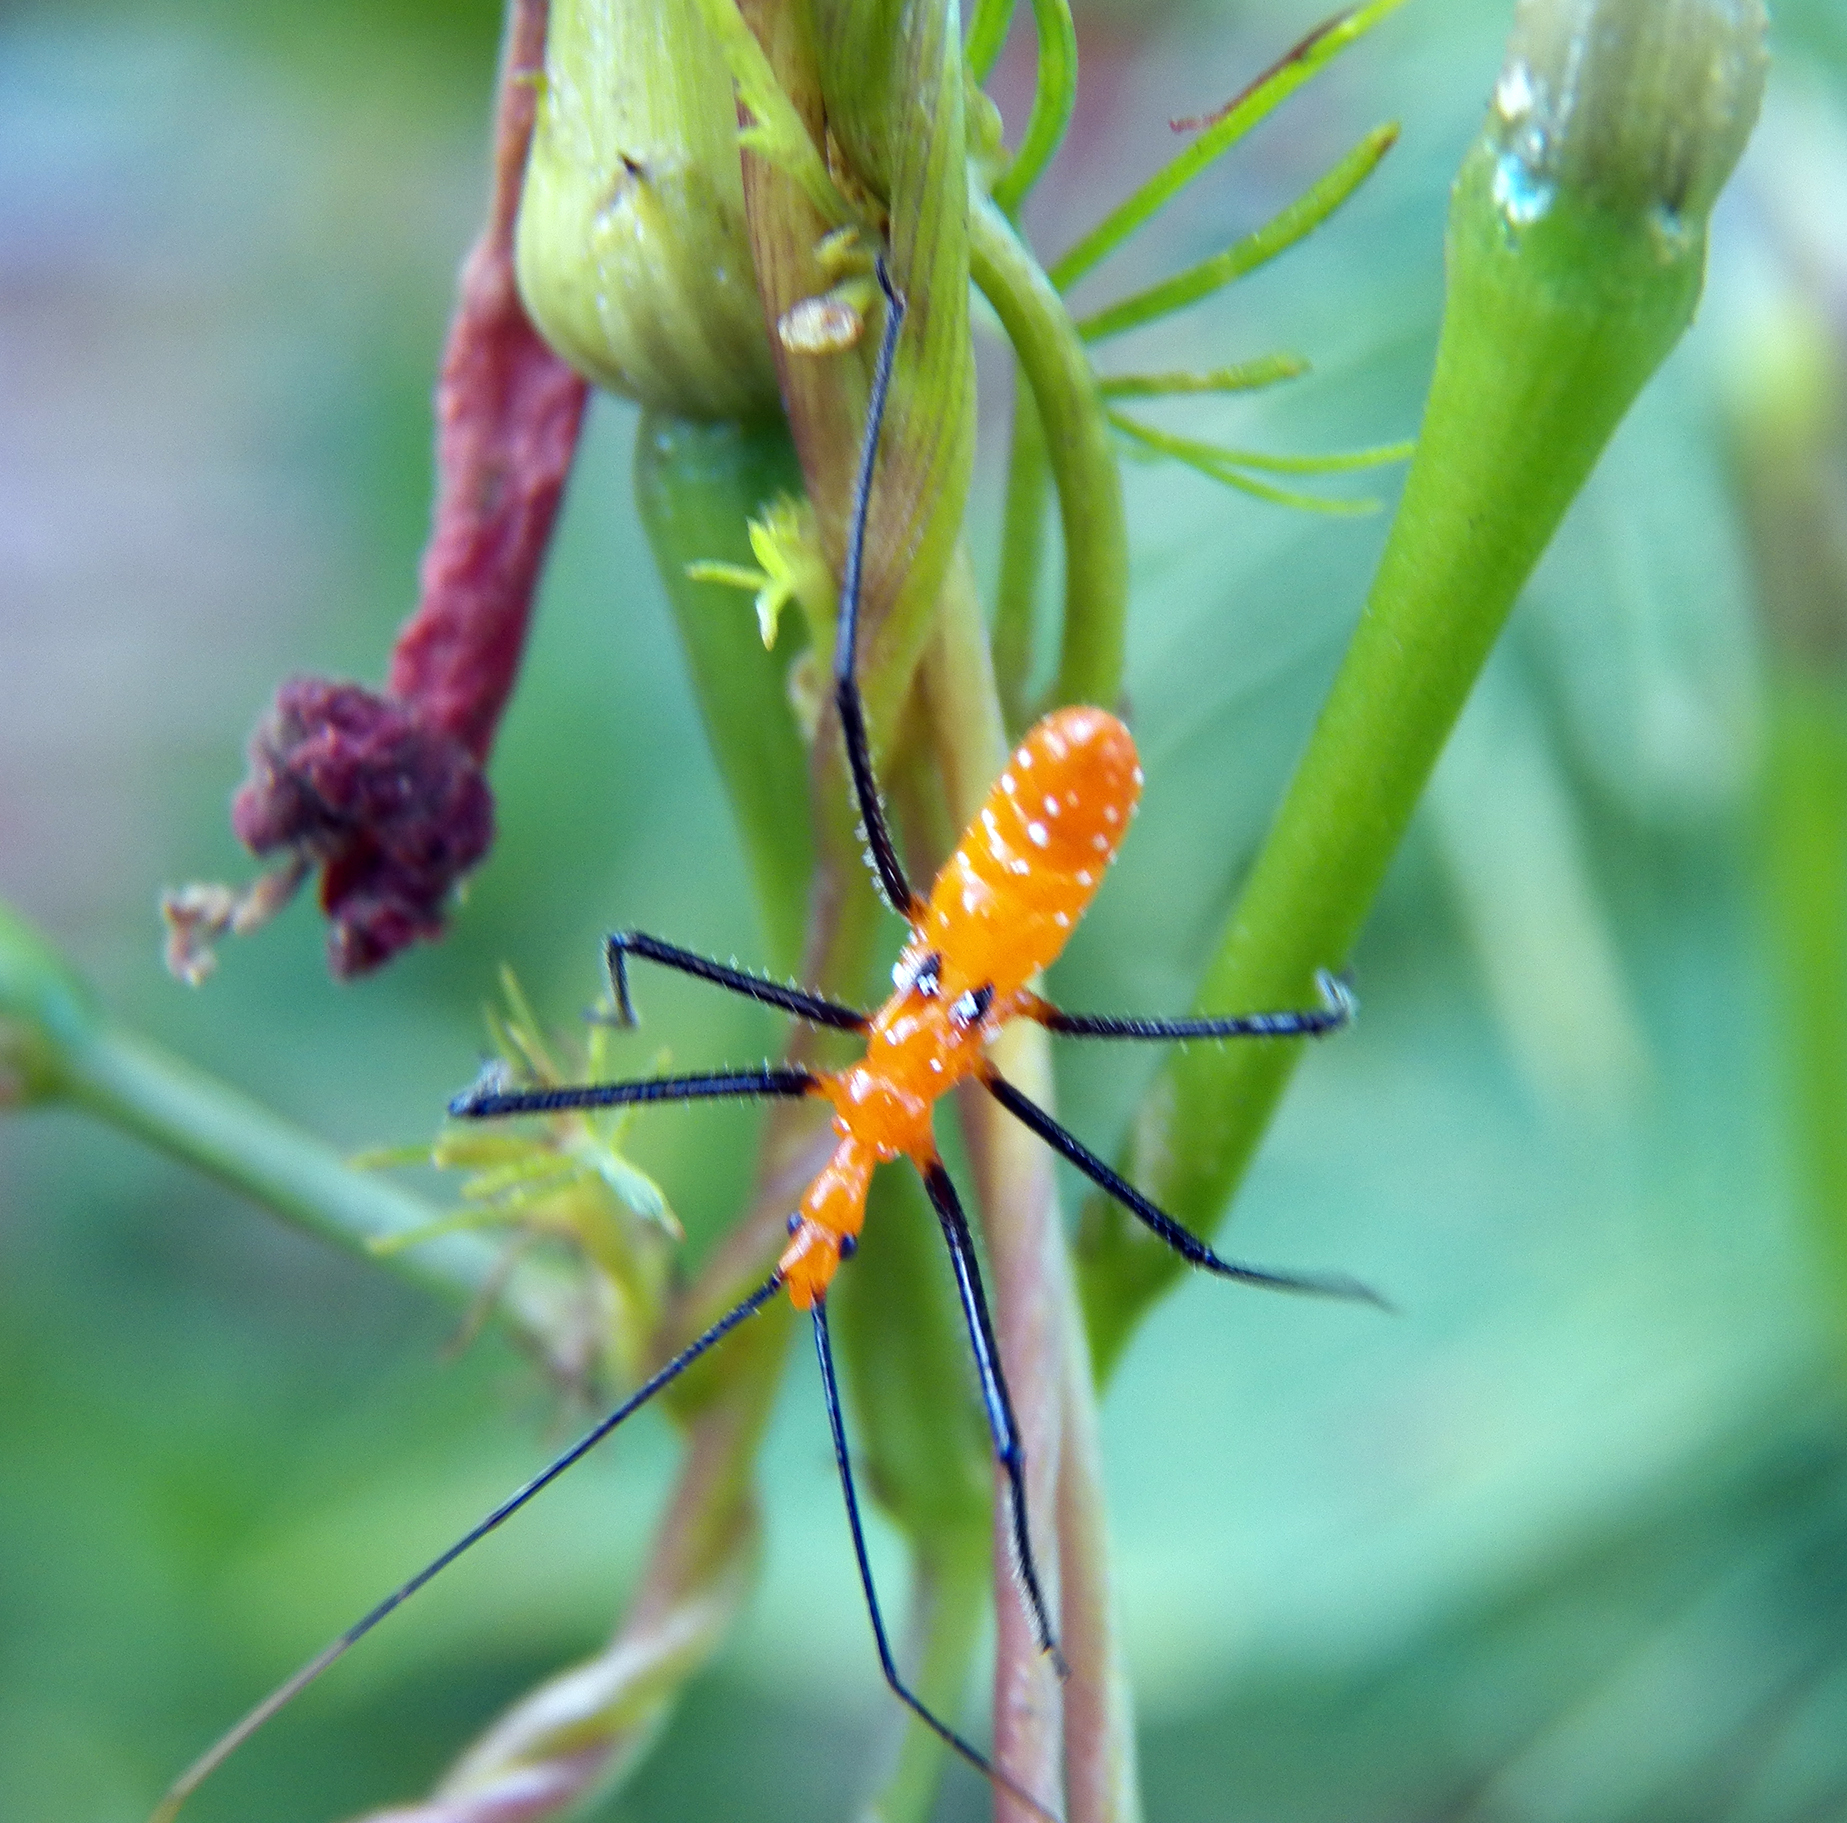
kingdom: Animalia
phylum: Arthropoda
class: Insecta
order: Hemiptera
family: Reduviidae
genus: Zelus
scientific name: Zelus longipes
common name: Milkweed assassin bug
